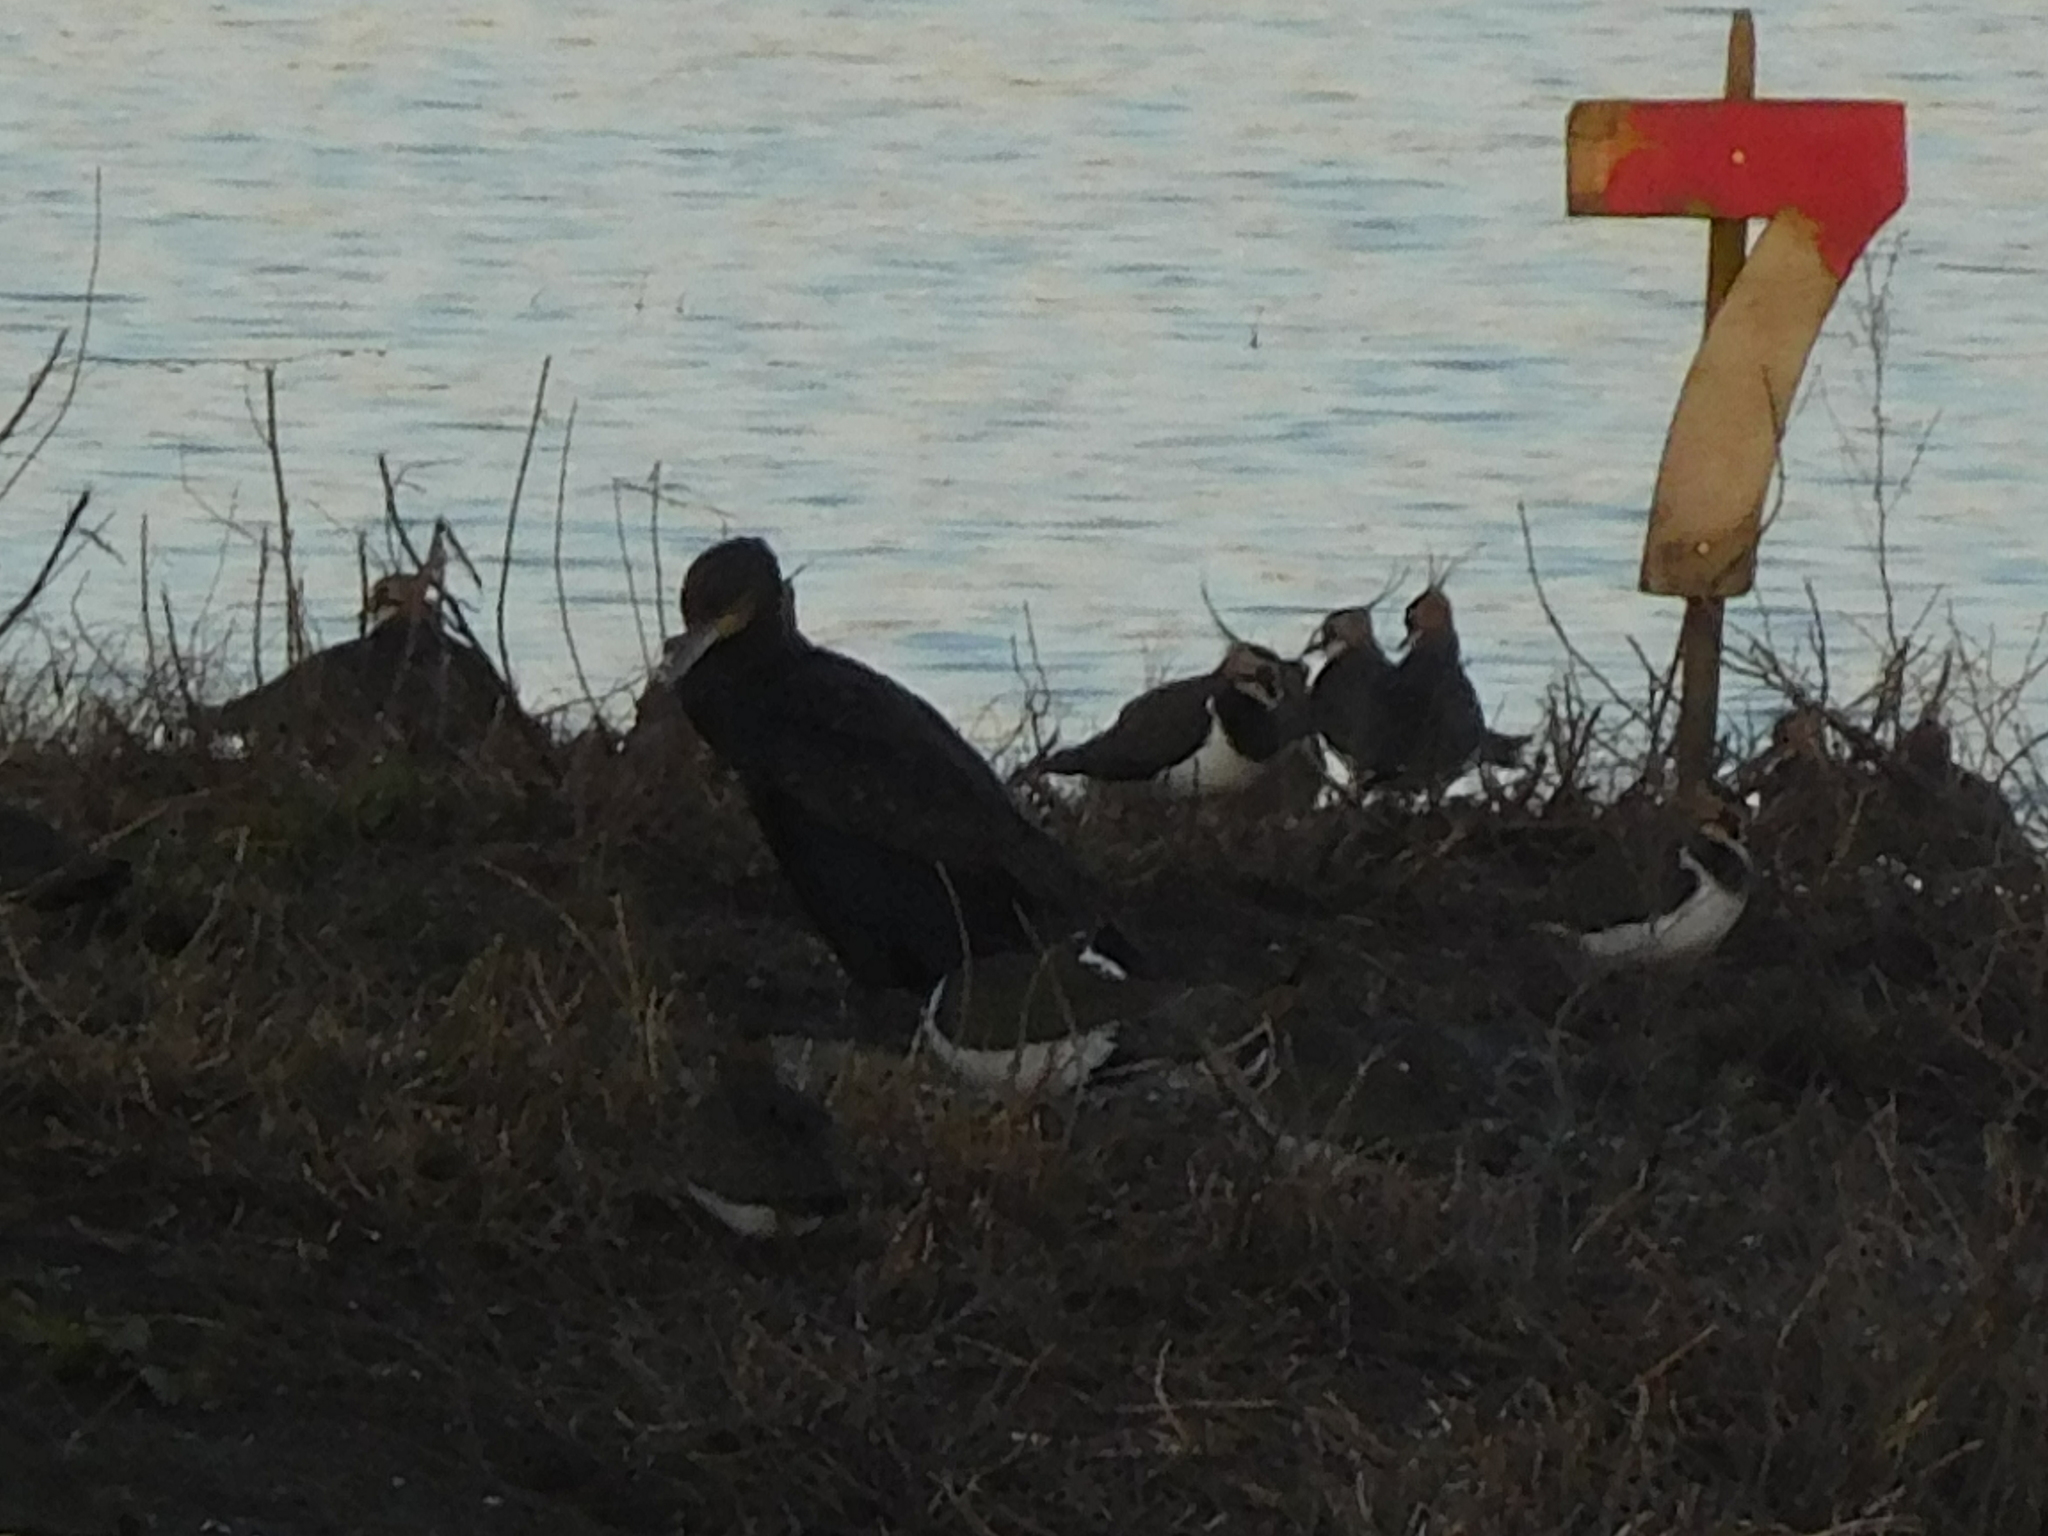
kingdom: Animalia
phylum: Chordata
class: Aves
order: Suliformes
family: Phalacrocoracidae
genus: Phalacrocorax
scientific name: Phalacrocorax carbo
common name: Great cormorant
